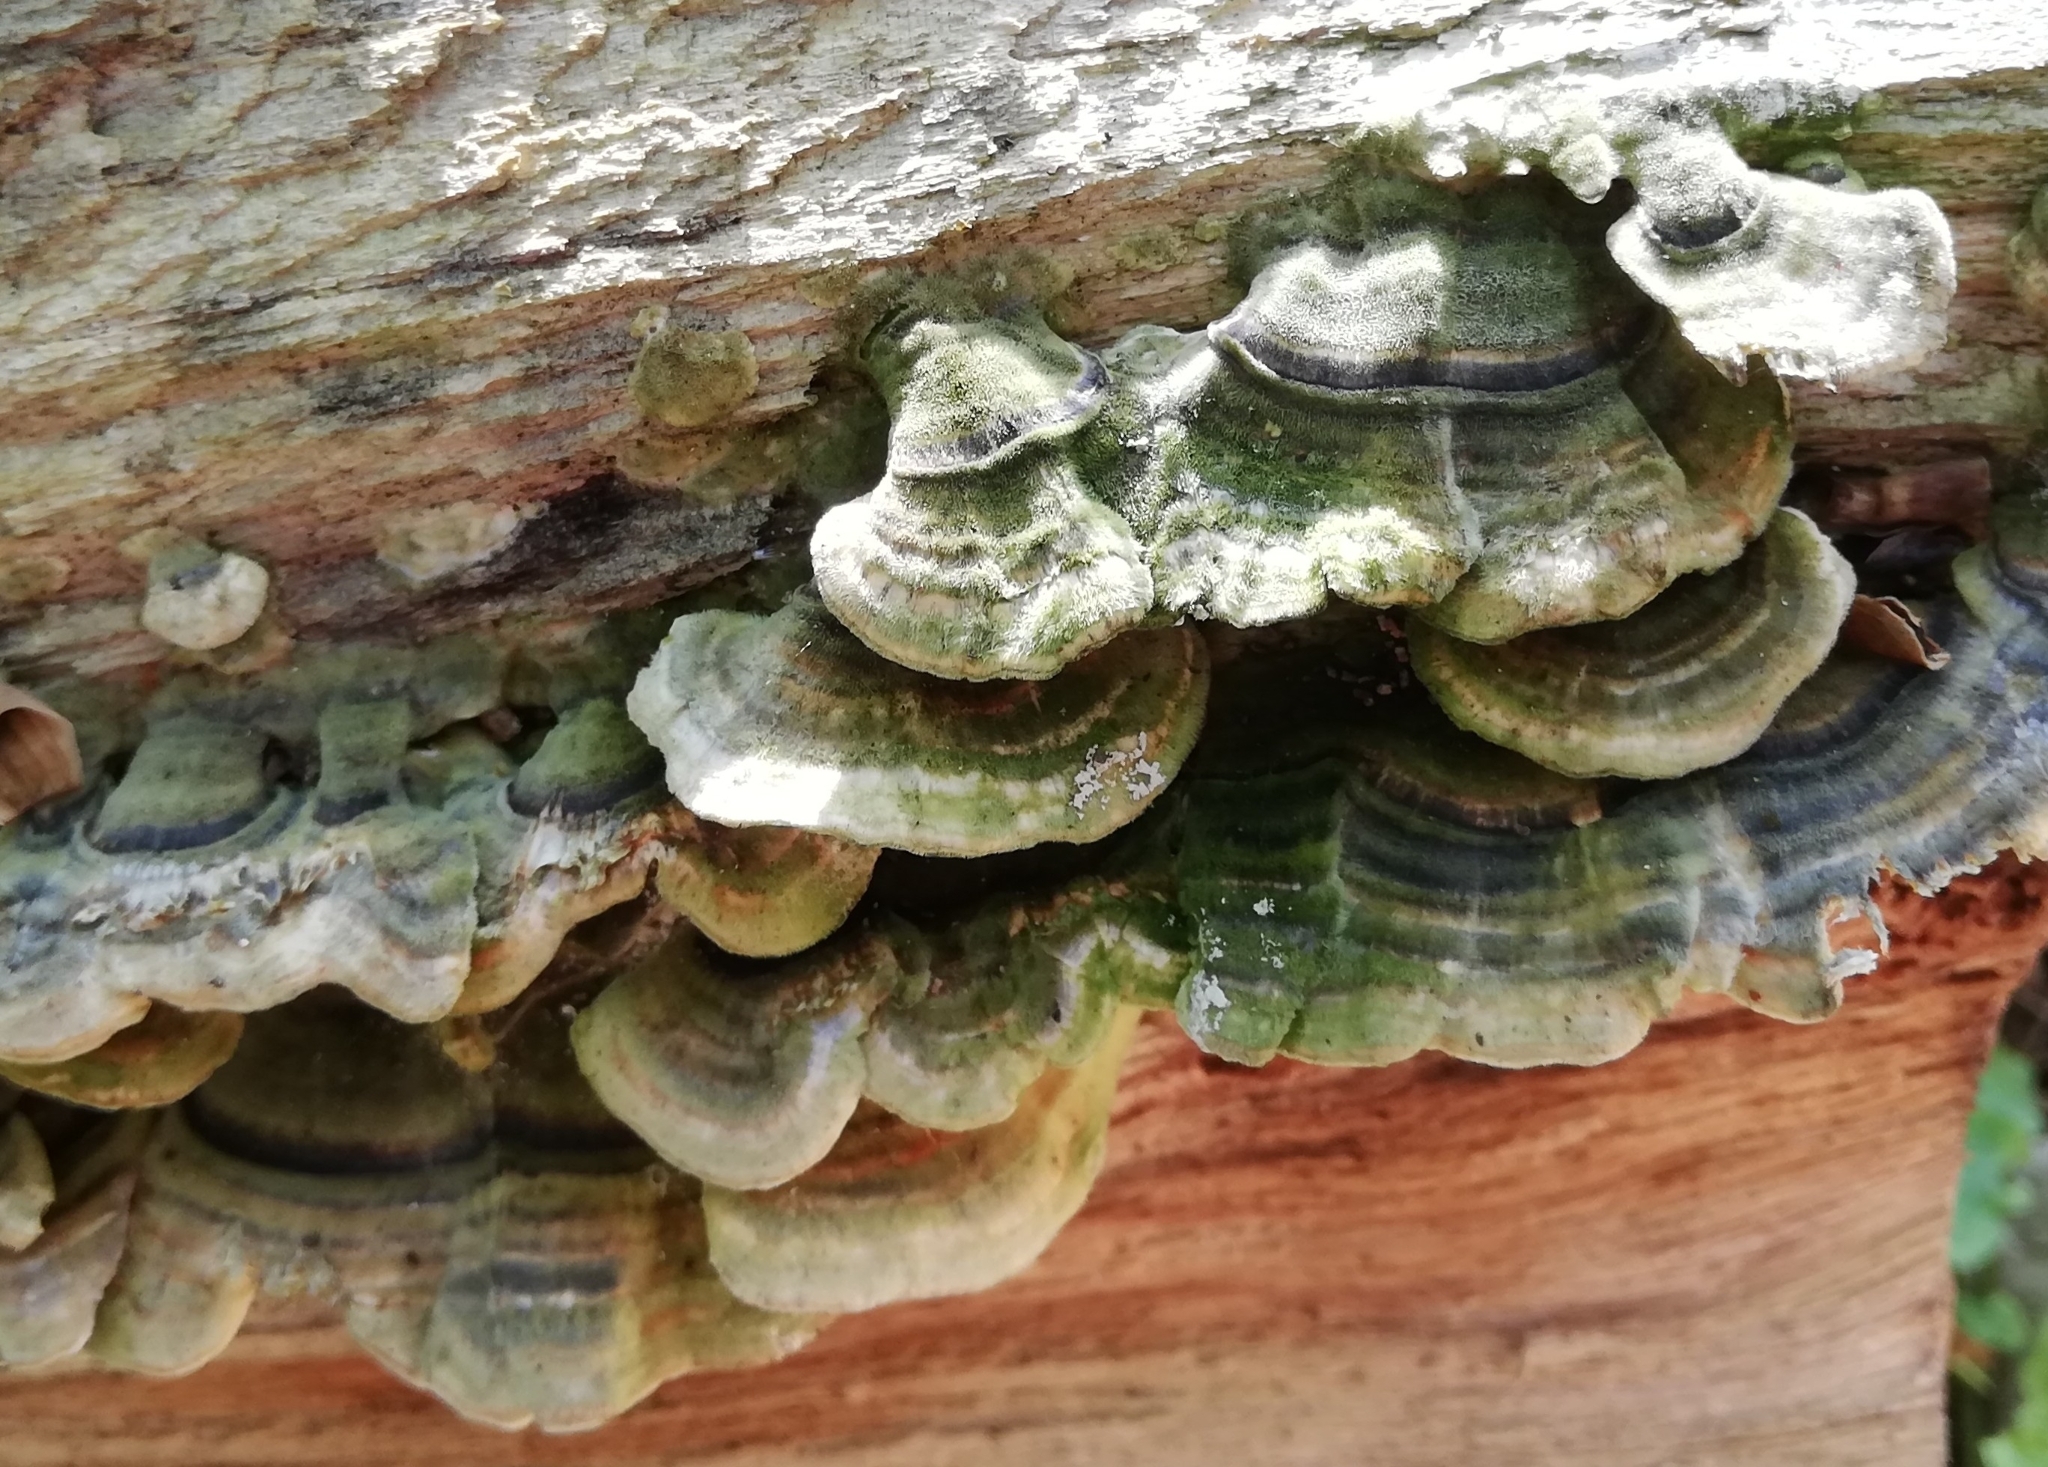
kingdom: Fungi
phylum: Basidiomycota
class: Agaricomycetes
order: Polyporales
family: Polyporaceae
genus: Trametes
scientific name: Trametes versicolor
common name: Turkeytail
